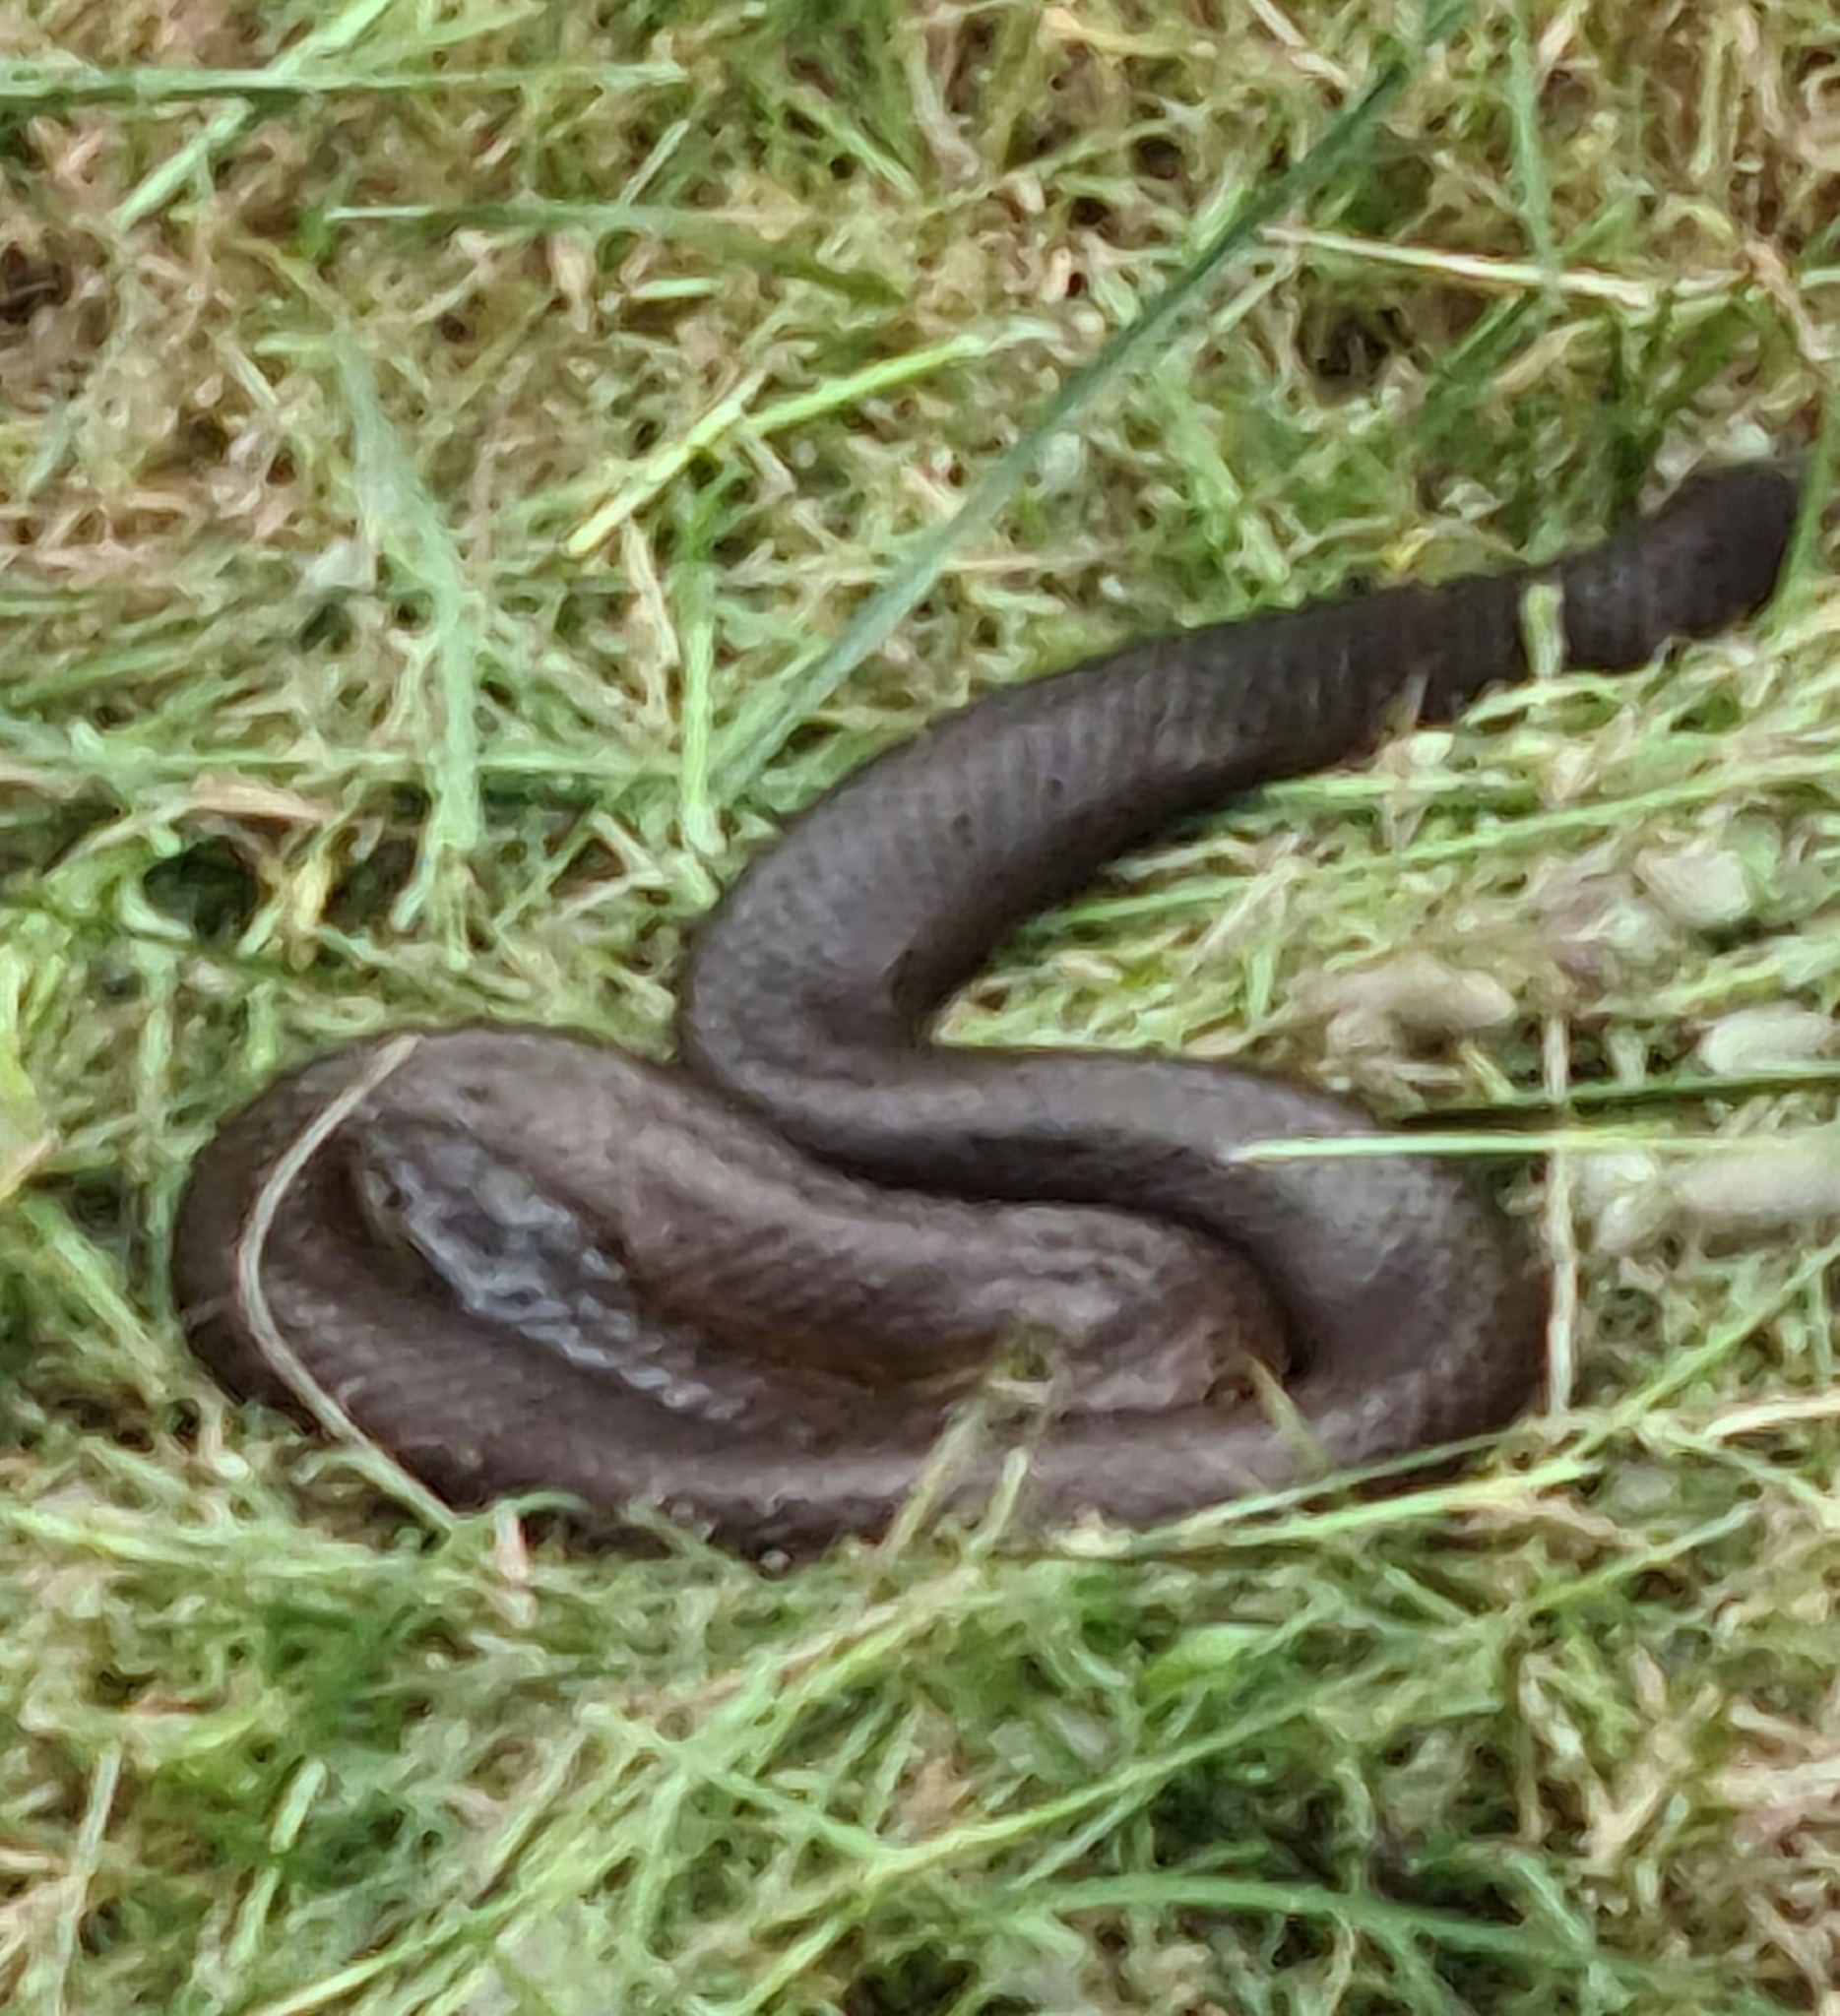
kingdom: Animalia
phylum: Chordata
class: Squamata
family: Elapidae
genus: Notechis
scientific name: Notechis scutatus
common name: Mainland tiger snake
